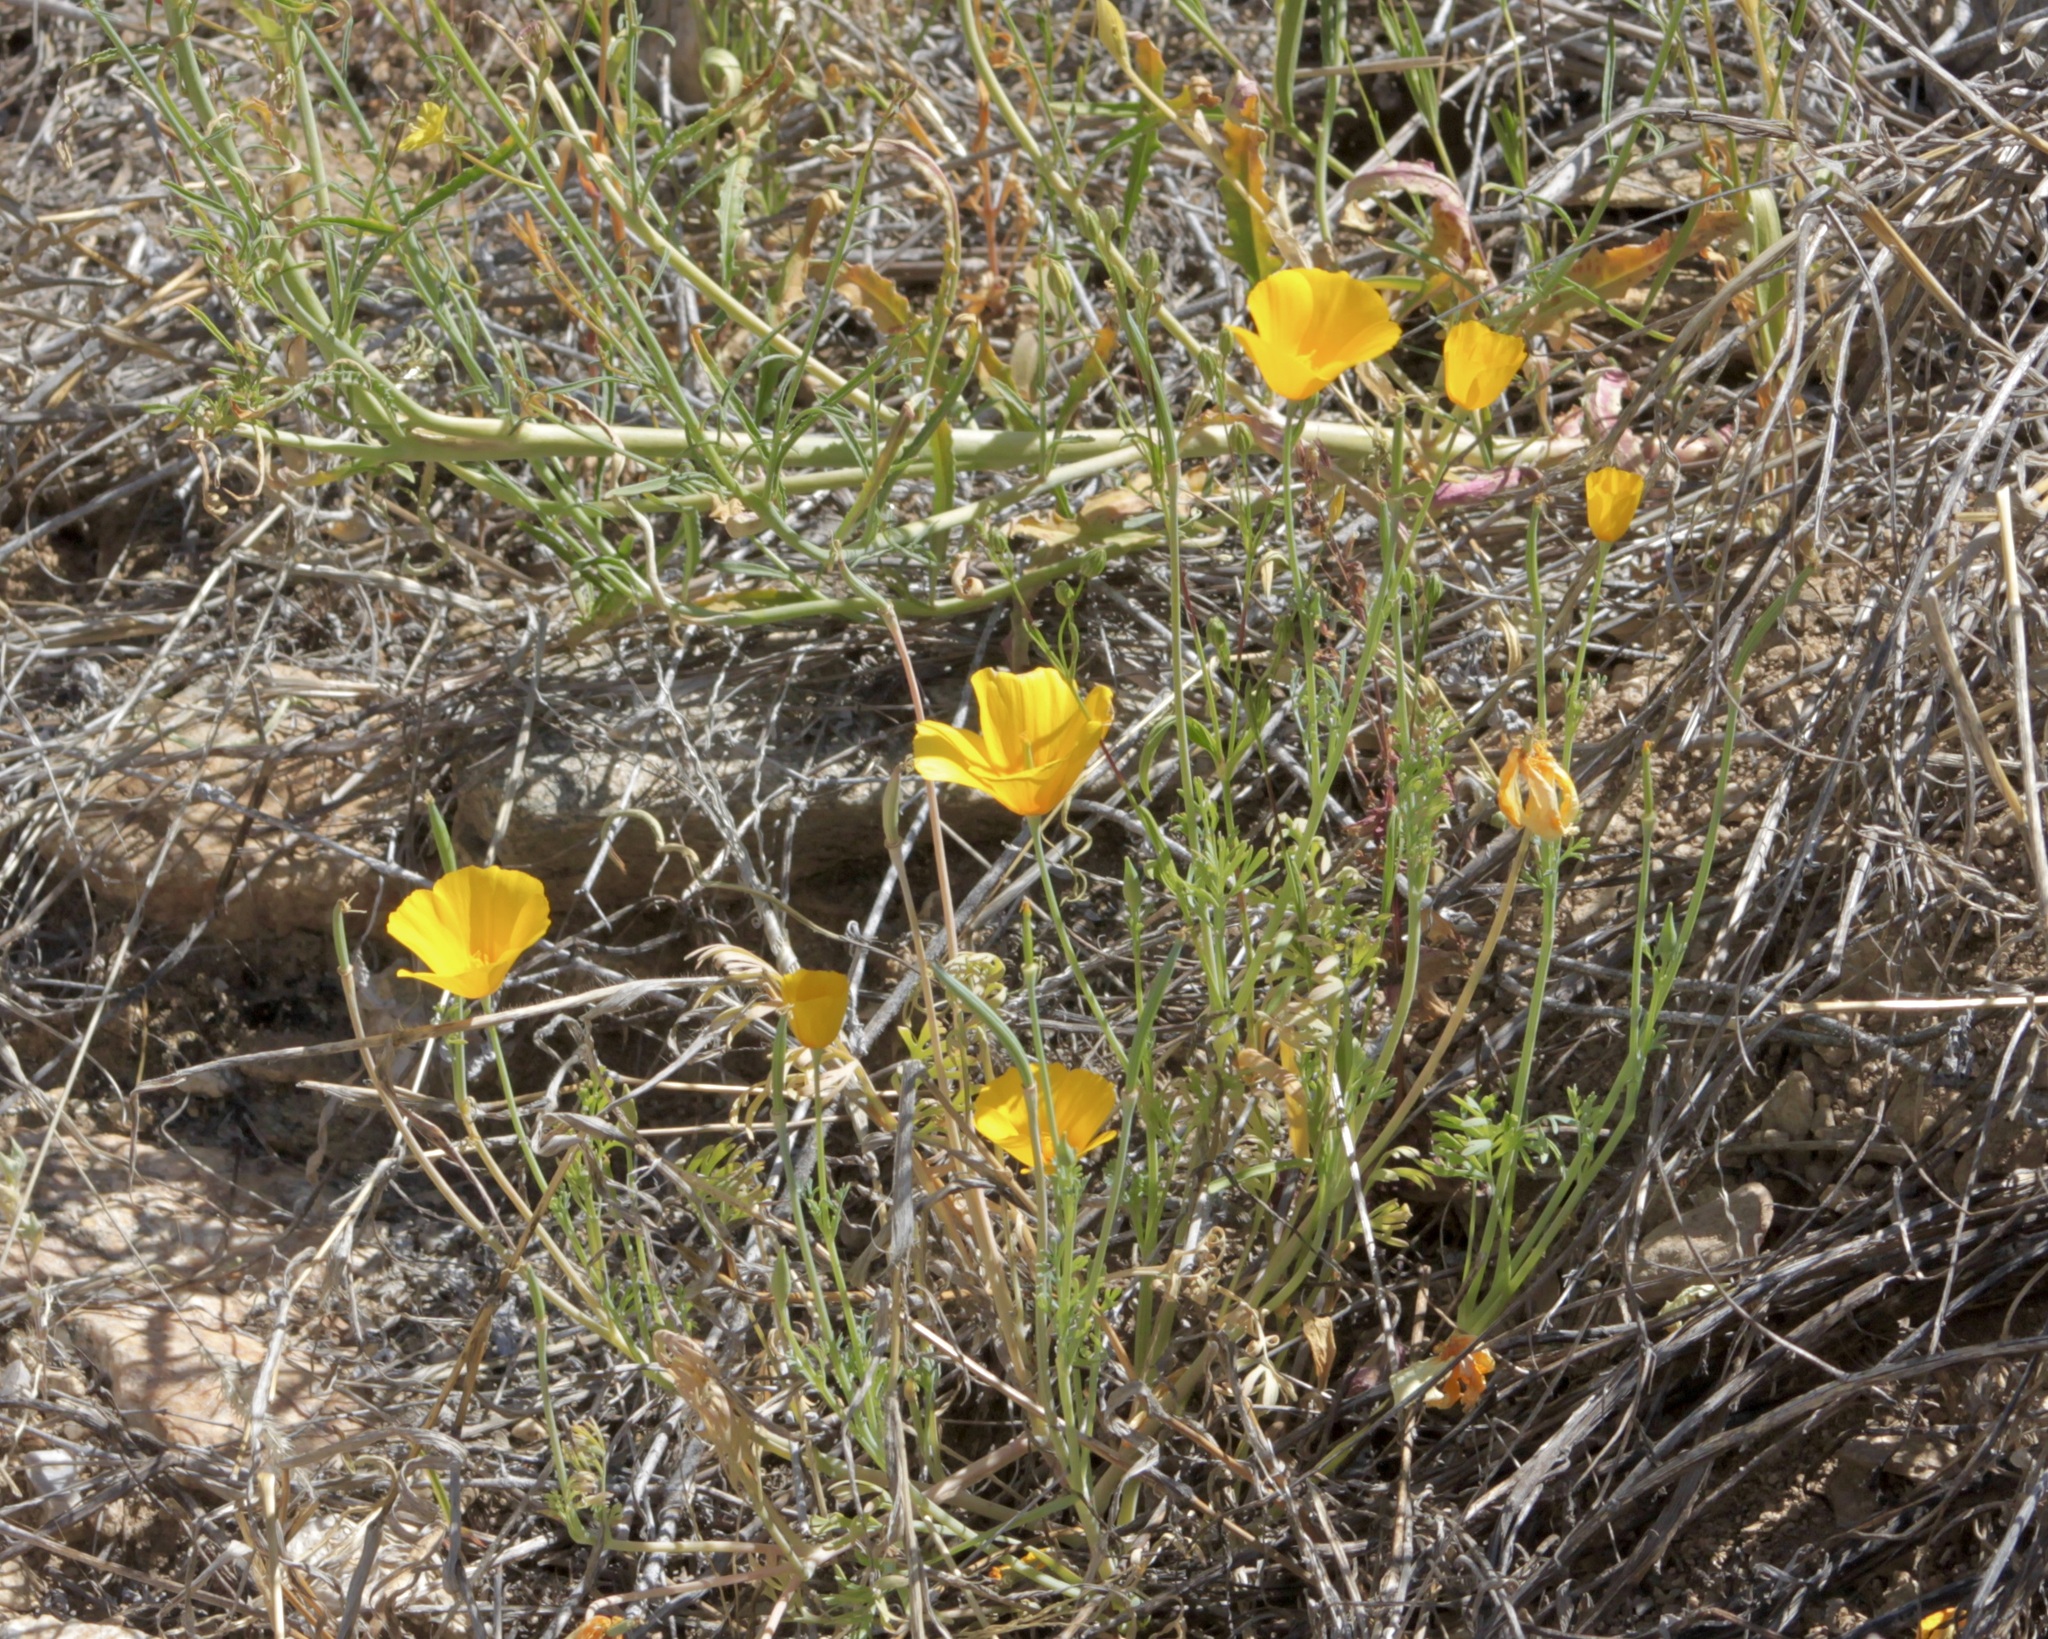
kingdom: Plantae
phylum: Tracheophyta
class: Magnoliopsida
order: Ranunculales
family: Papaveraceae
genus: Eschscholzia
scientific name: Eschscholzia californica
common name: California poppy
